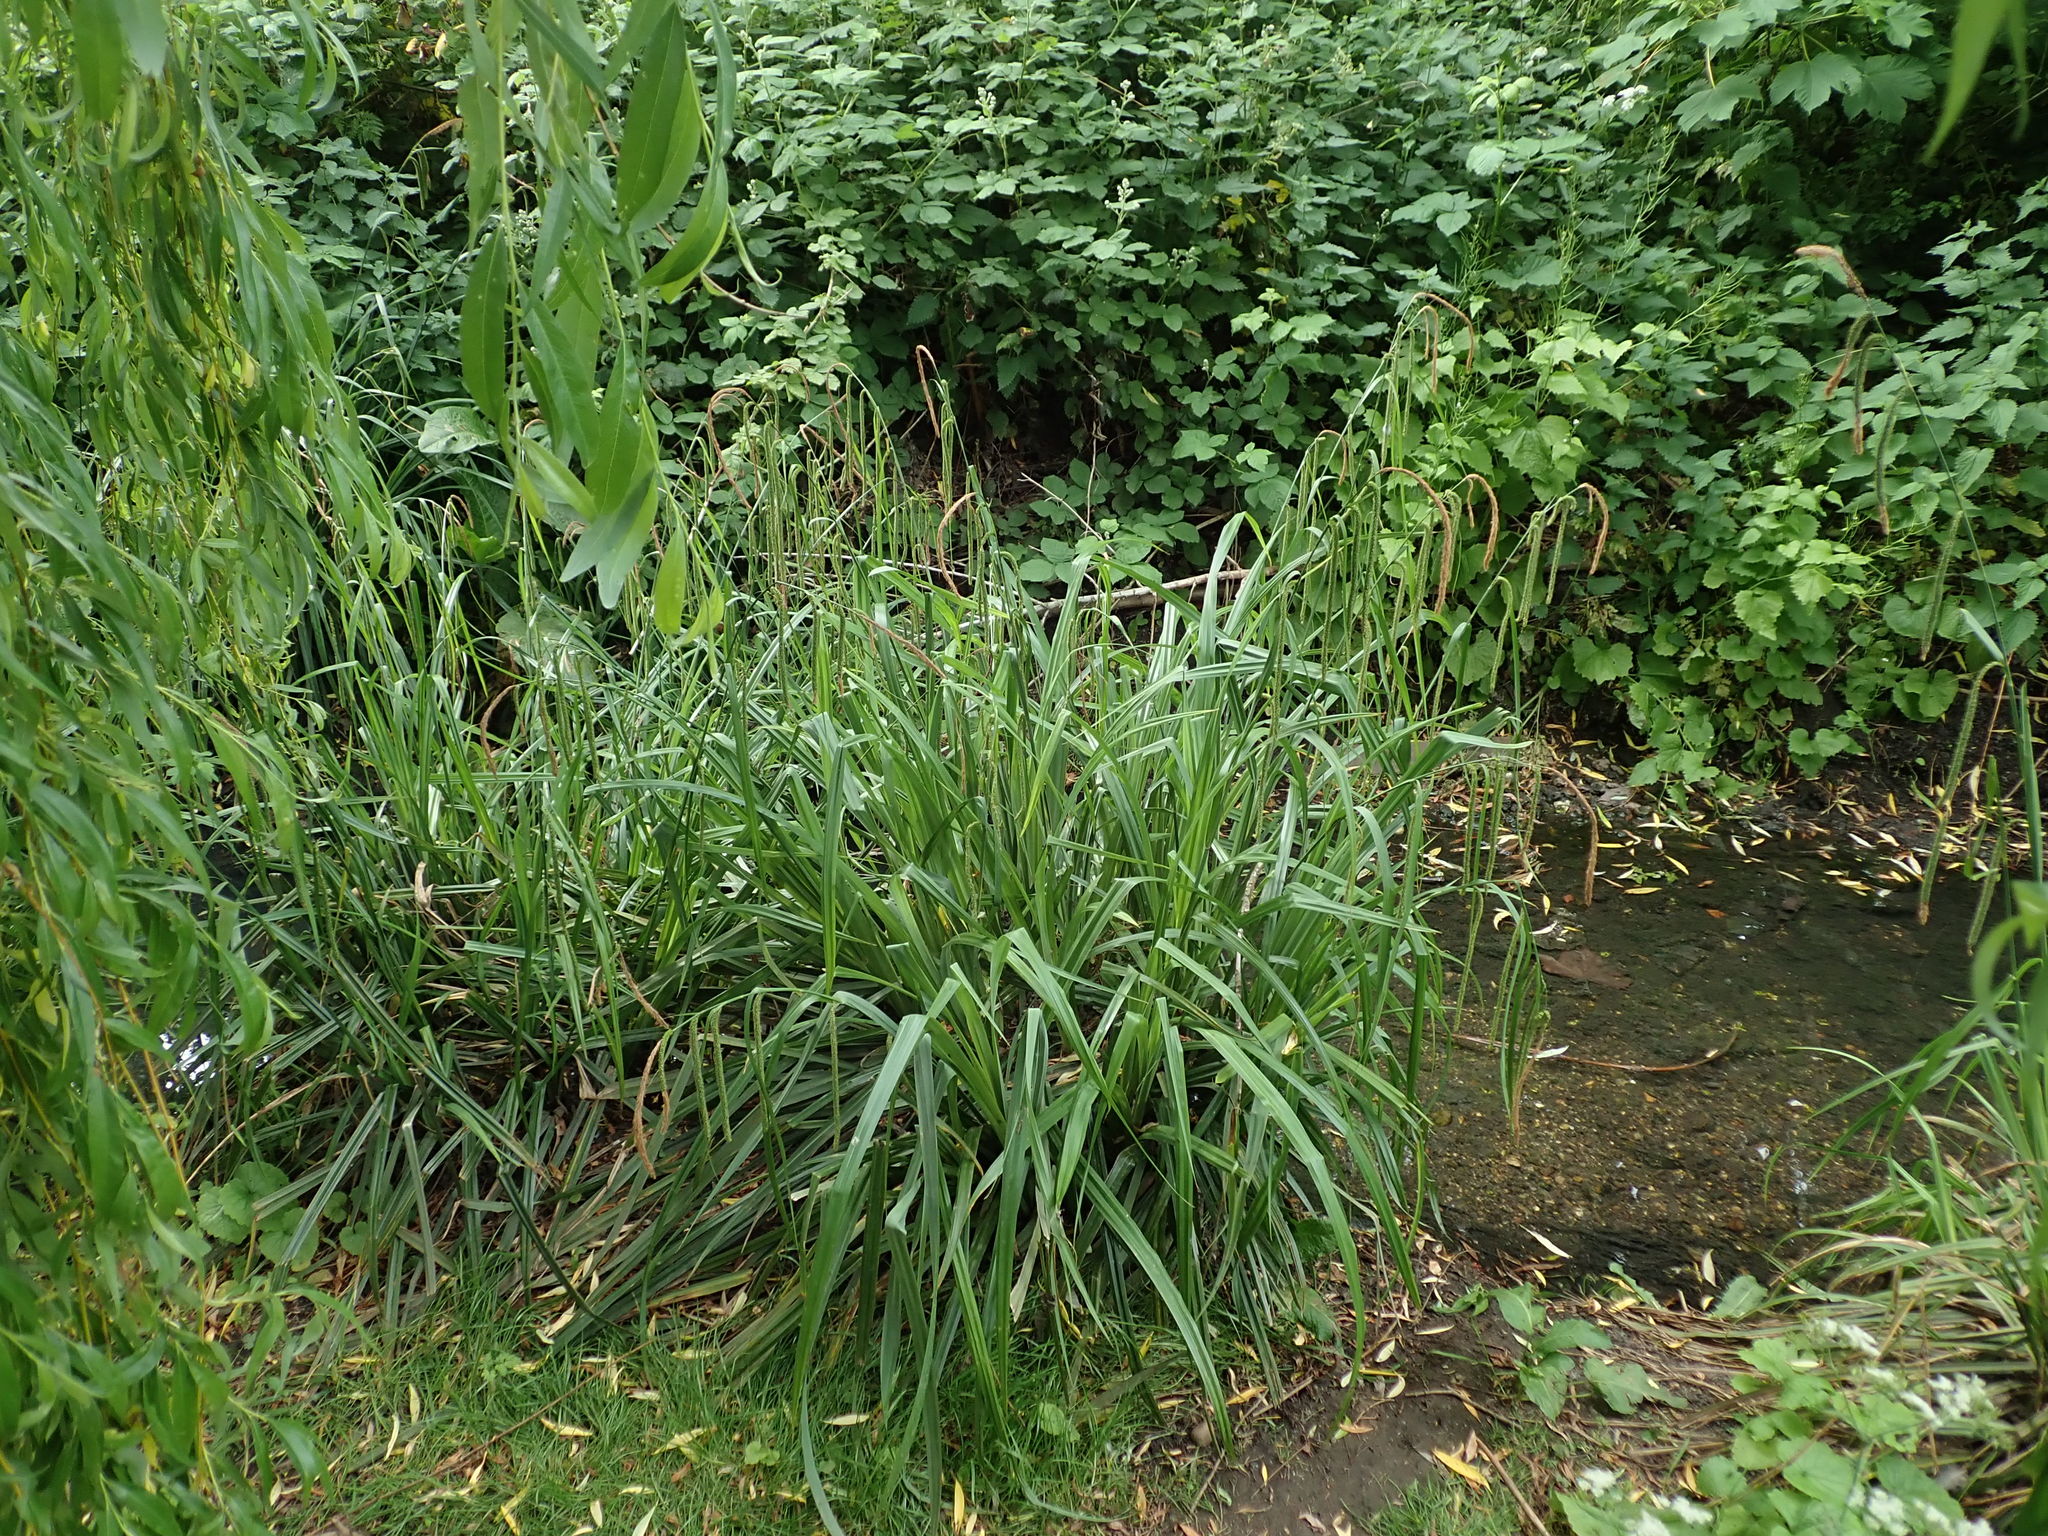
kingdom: Plantae
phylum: Tracheophyta
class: Liliopsida
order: Poales
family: Cyperaceae
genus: Carex
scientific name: Carex pendula
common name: Pendulous sedge
